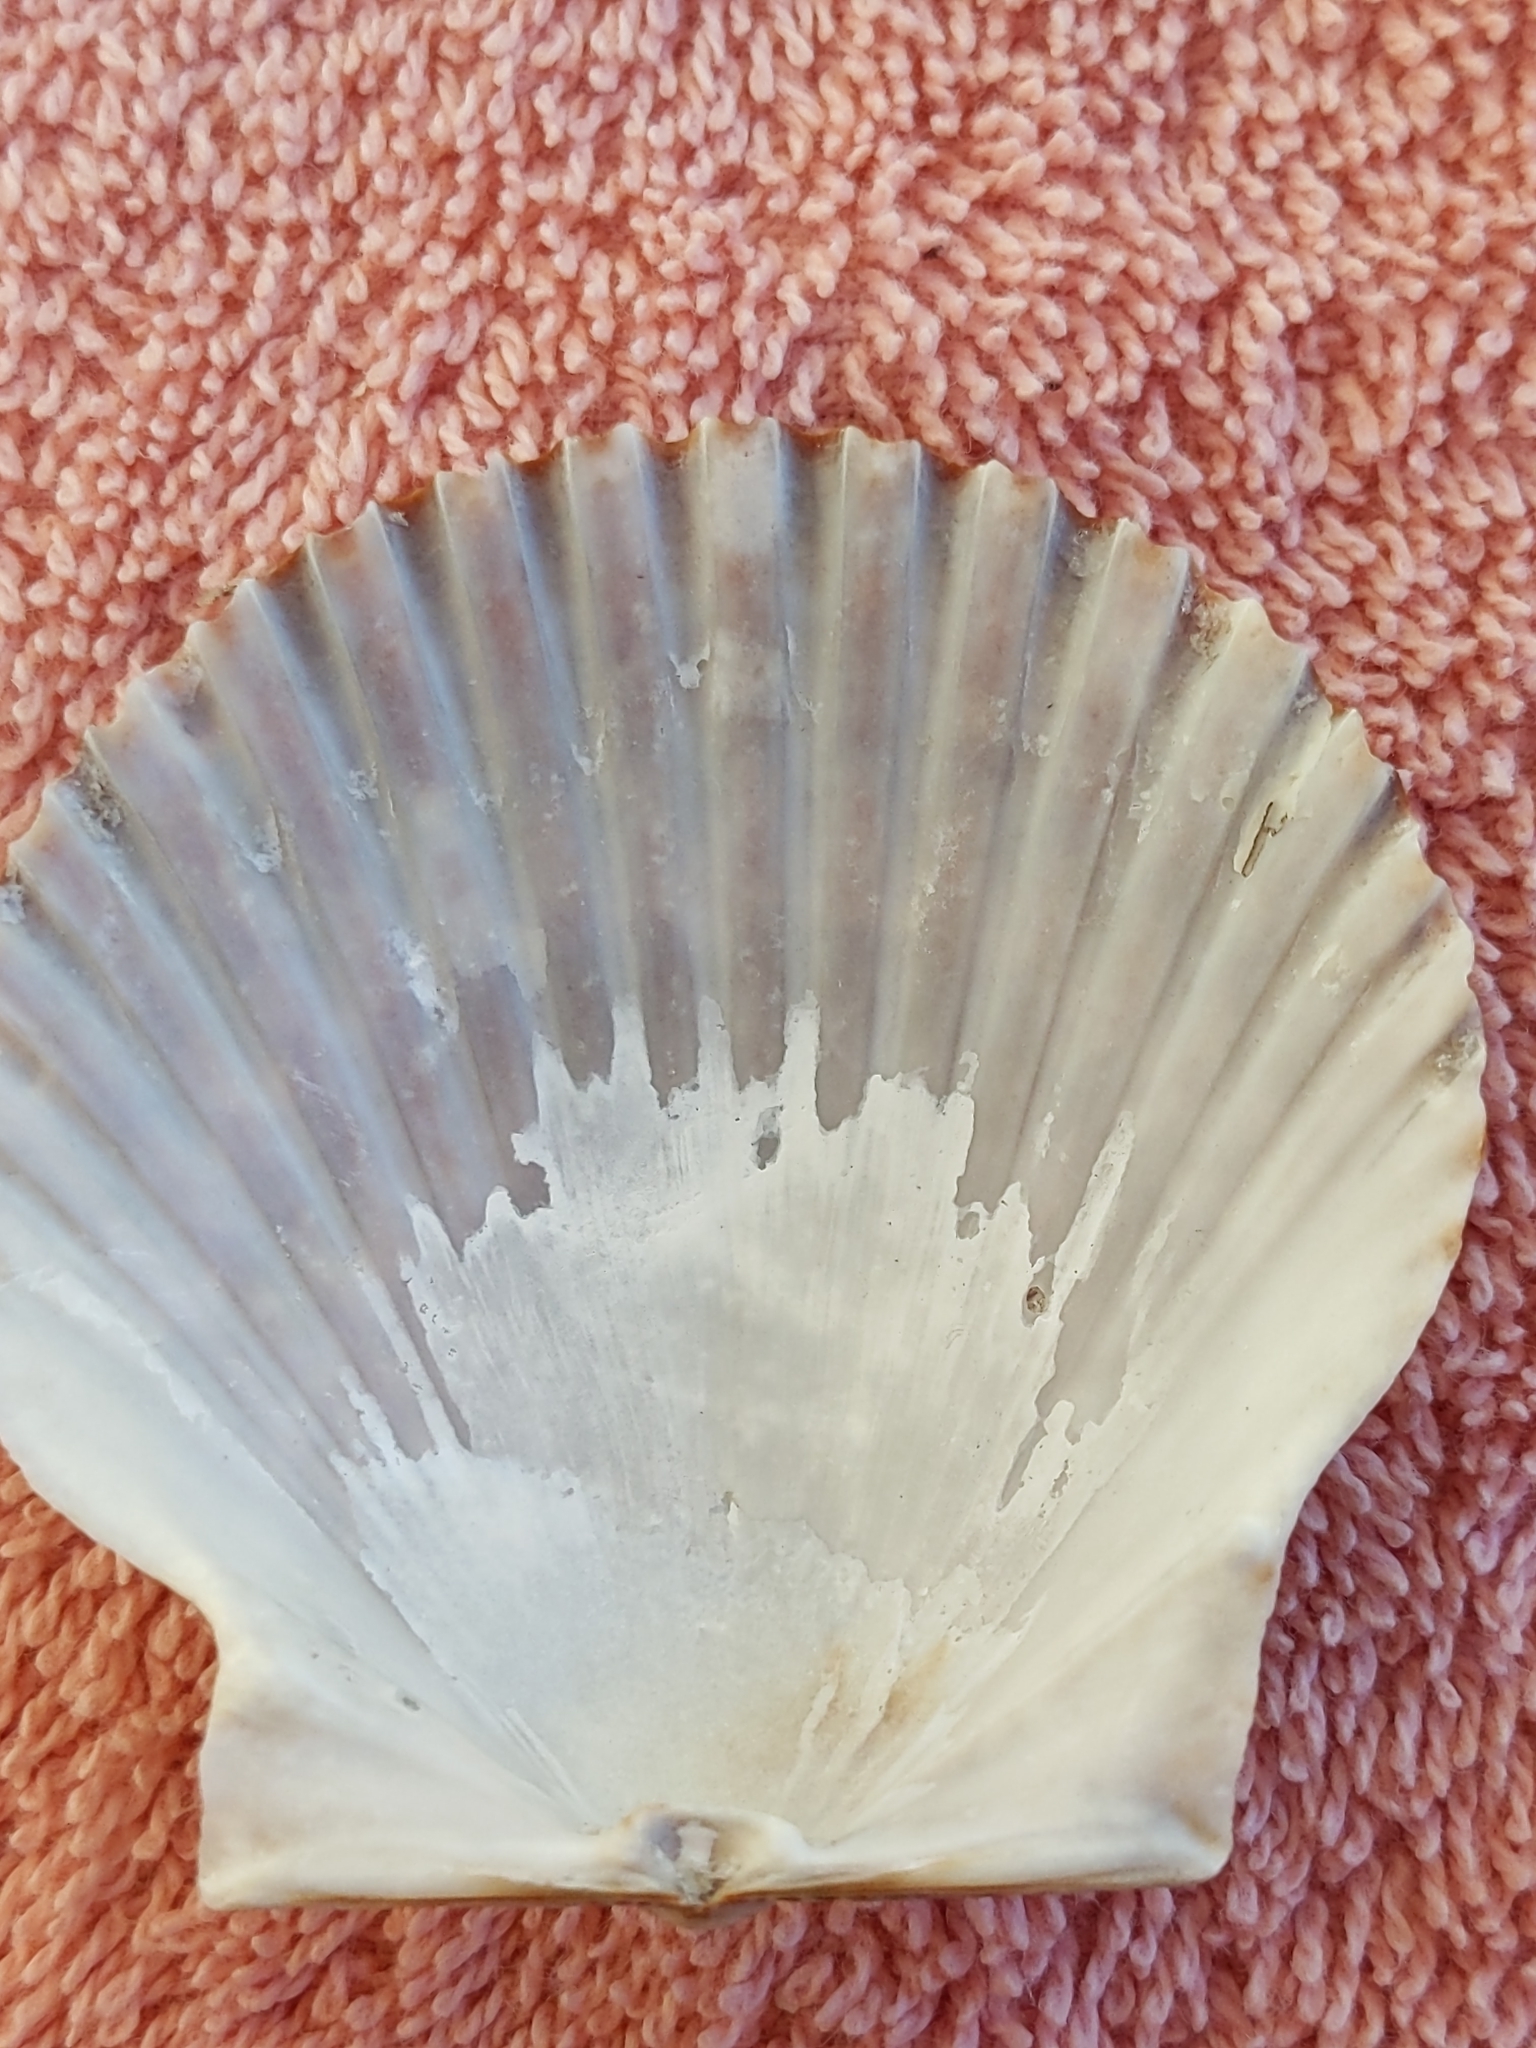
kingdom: Animalia
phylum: Mollusca
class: Bivalvia
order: Pectinida
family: Pectinidae
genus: Argopecten
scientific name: Argopecten irradians
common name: Atlantic bay scallop
